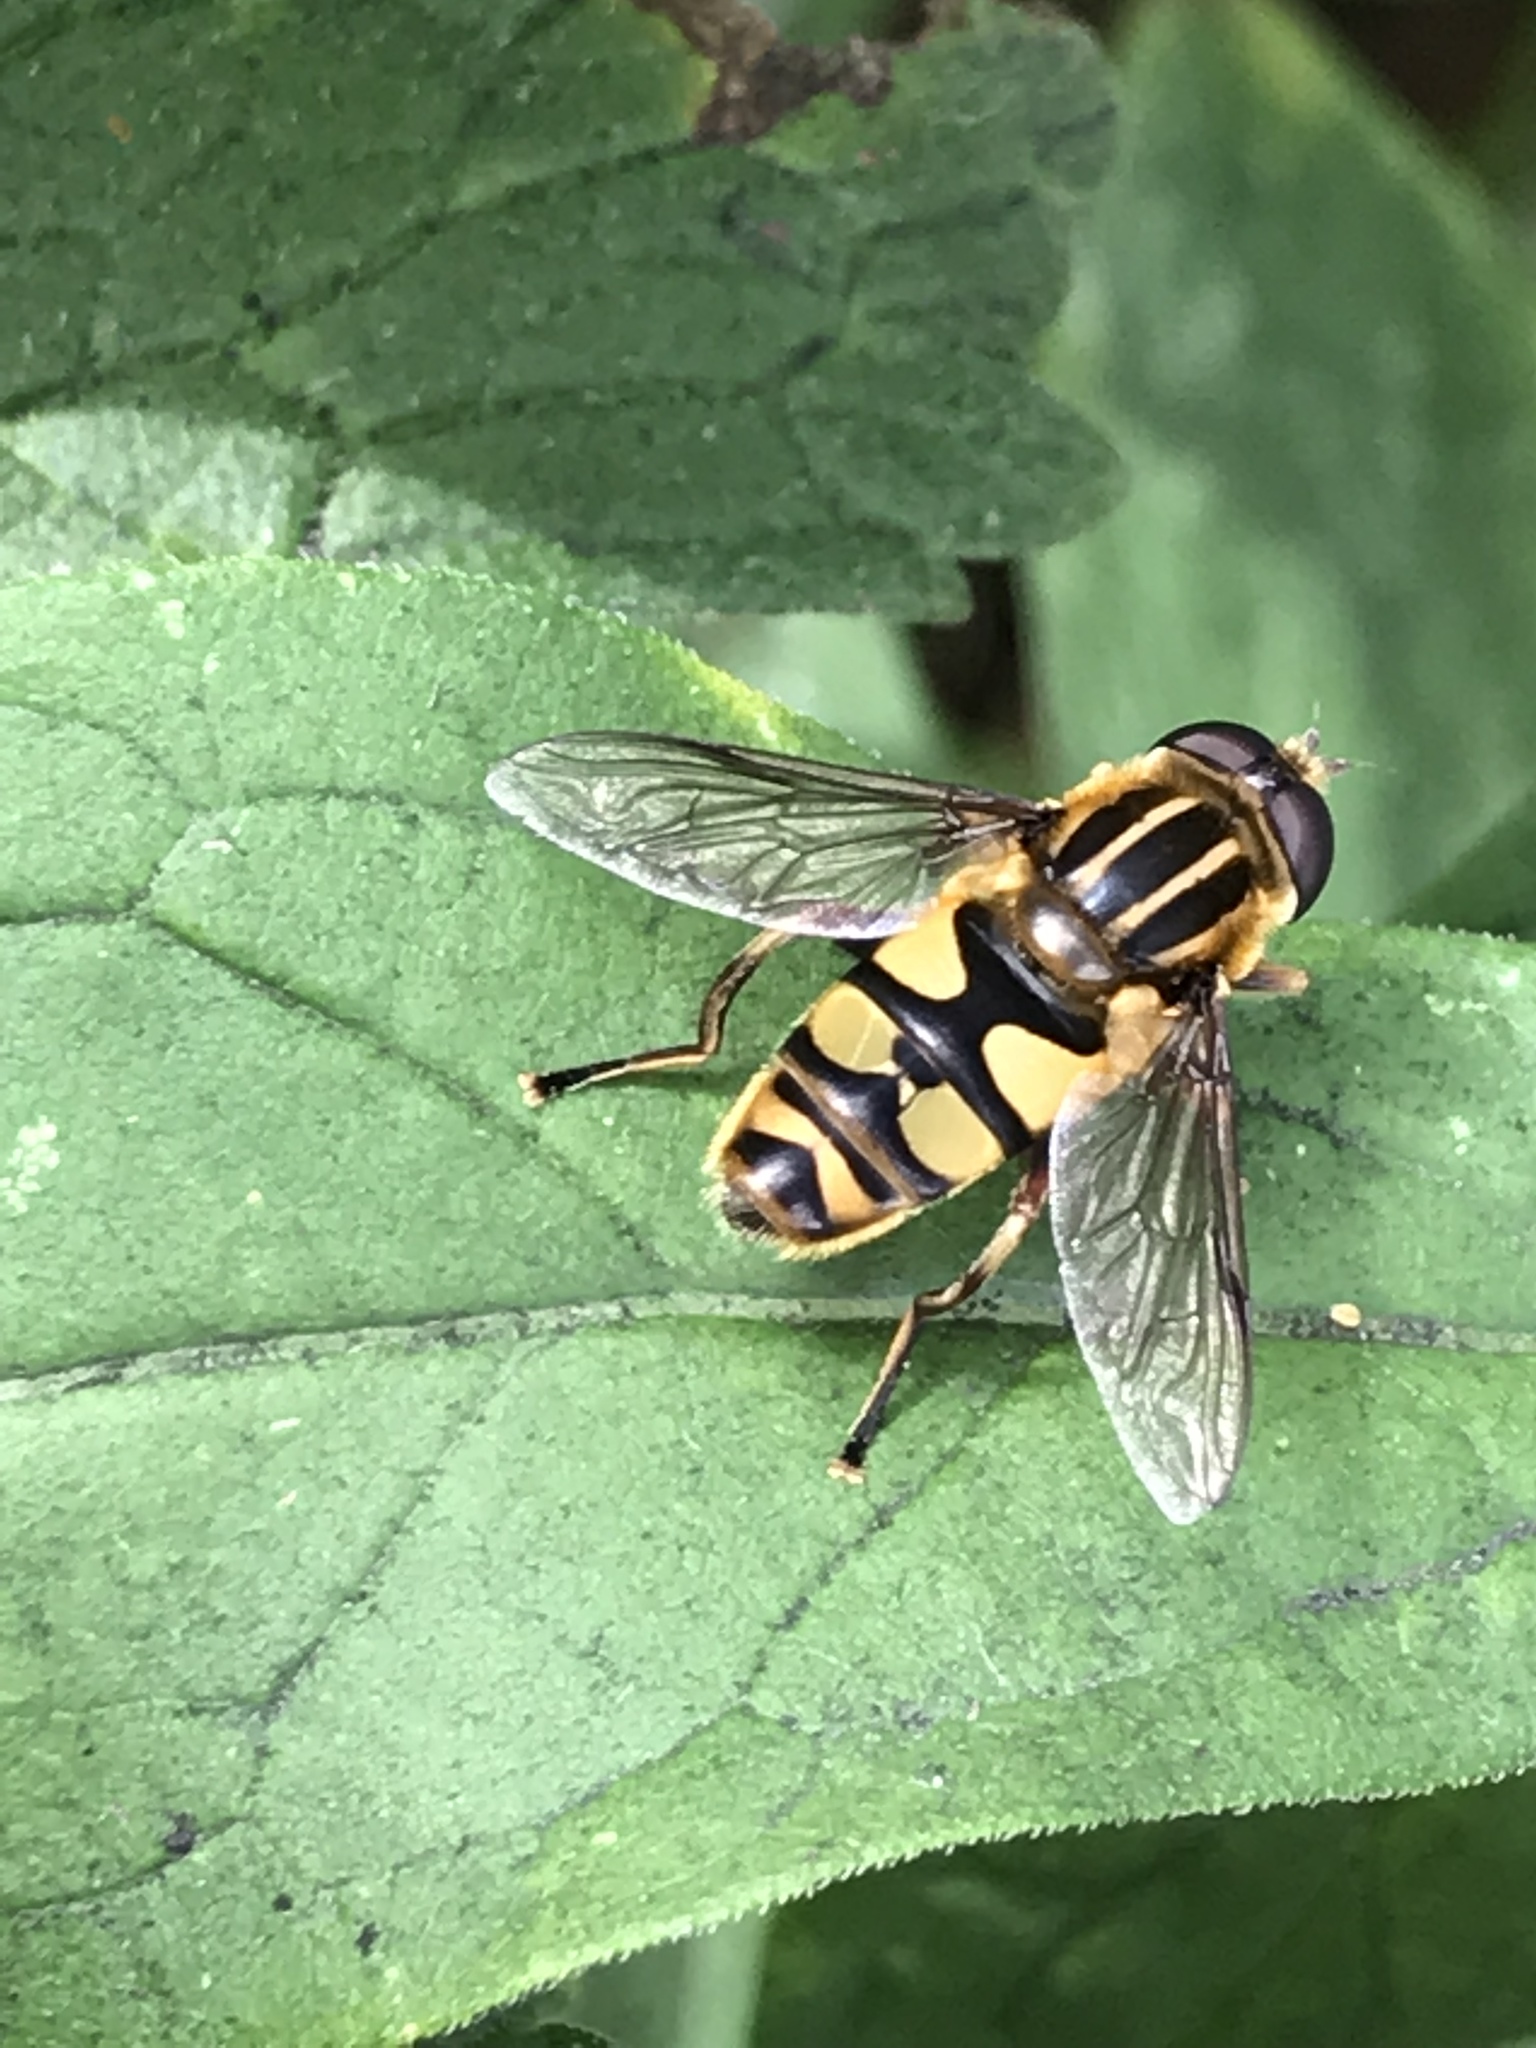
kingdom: Animalia
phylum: Arthropoda
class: Insecta
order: Diptera
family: Syrphidae
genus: Helophilus
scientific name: Helophilus fasciatus
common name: Narrow-headed marsh fly
